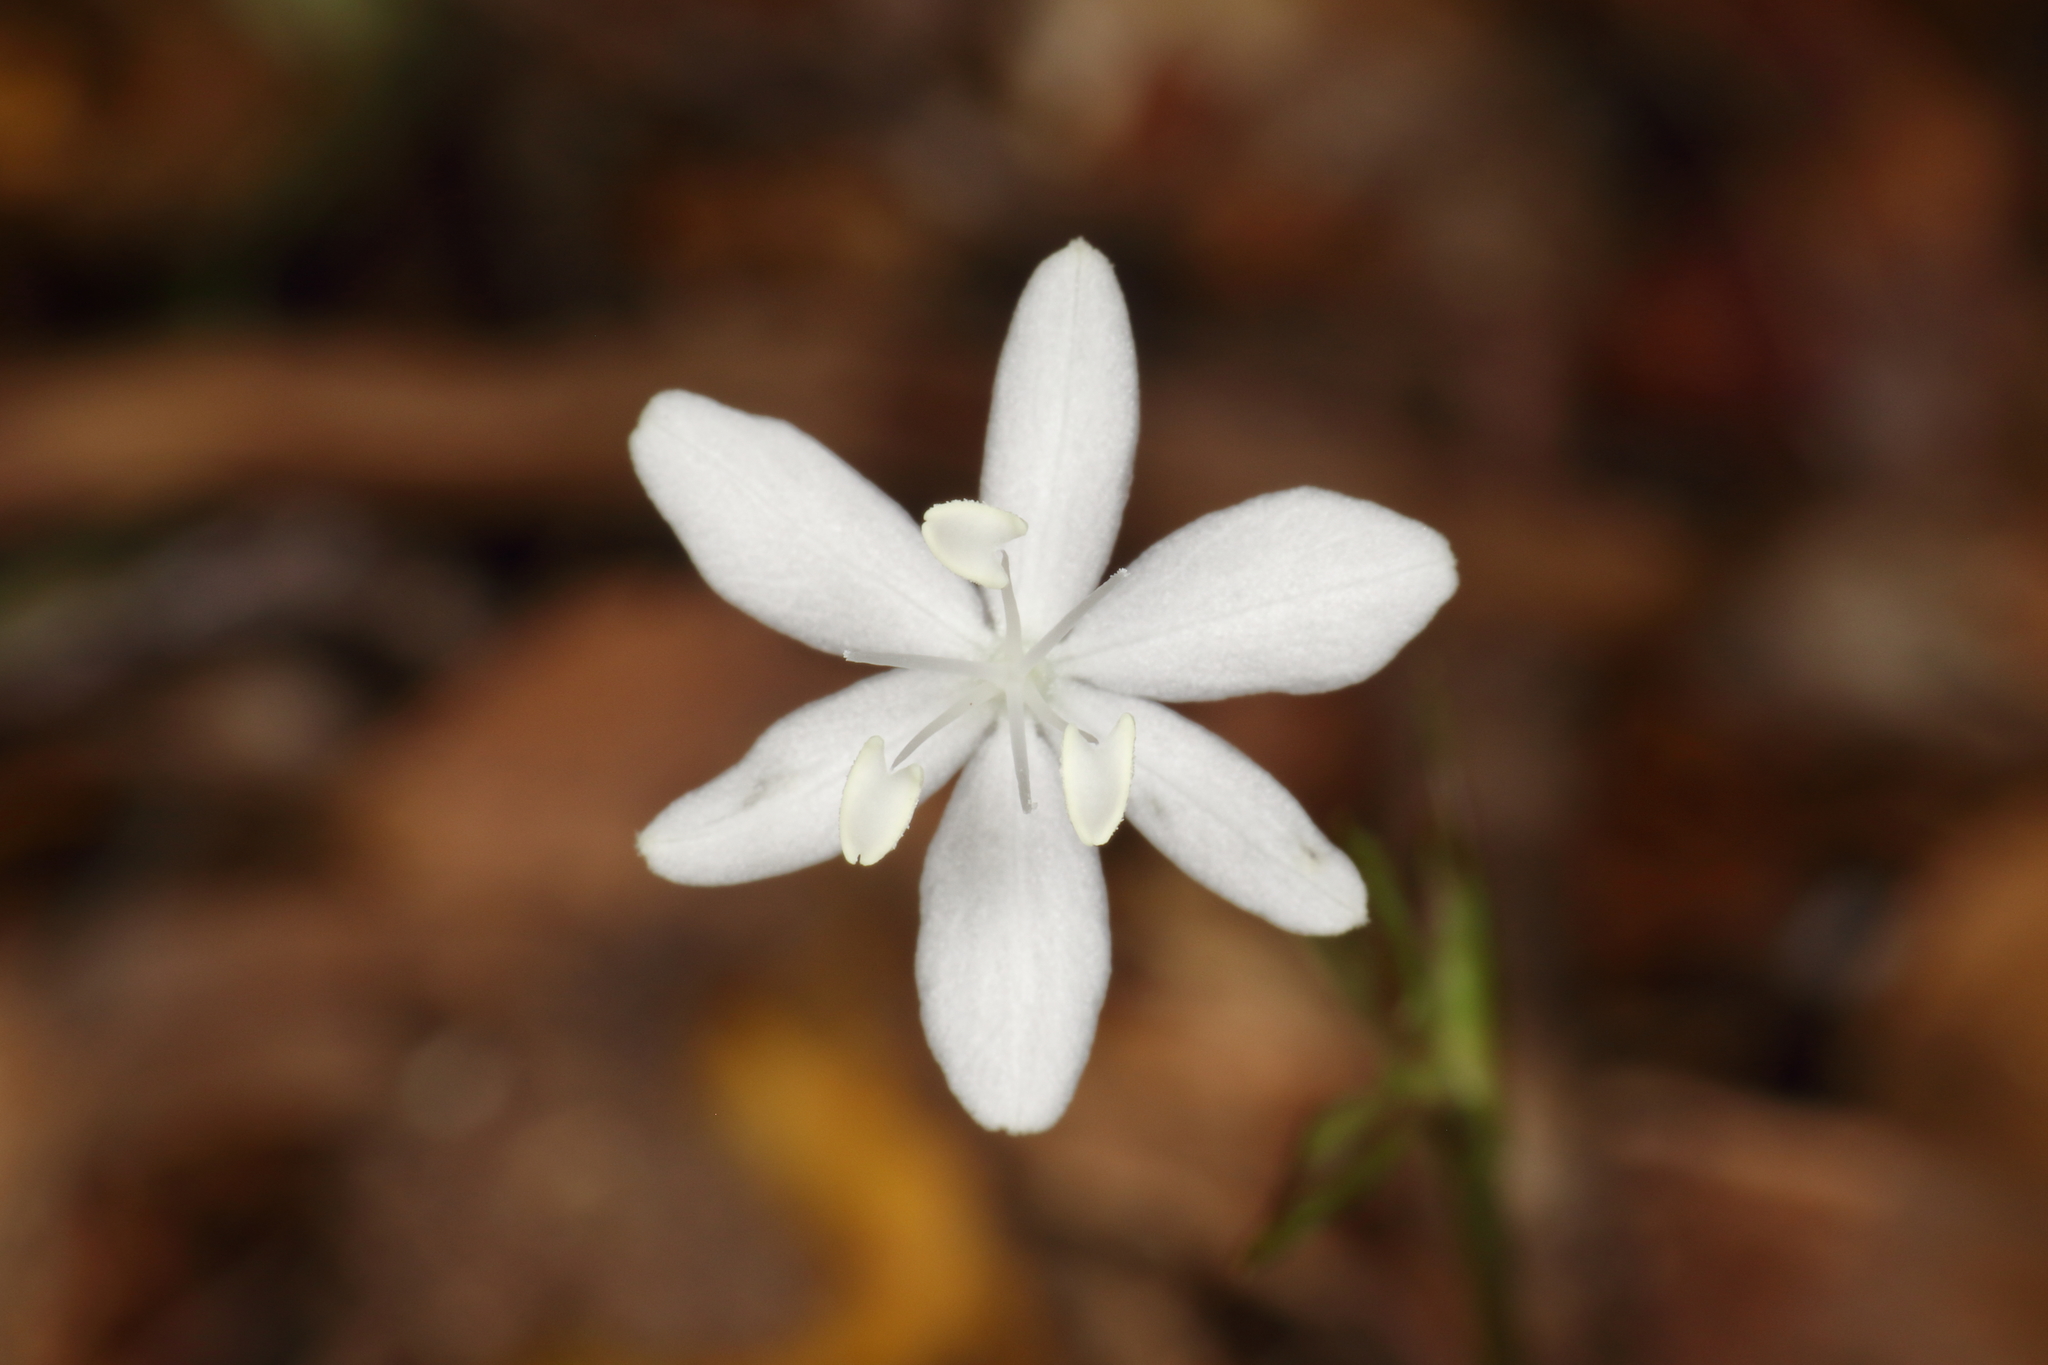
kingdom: Plantae
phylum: Tracheophyta
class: Liliopsida
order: Asparagales
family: Iridaceae
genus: Libertia
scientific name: Libertia micrantha
